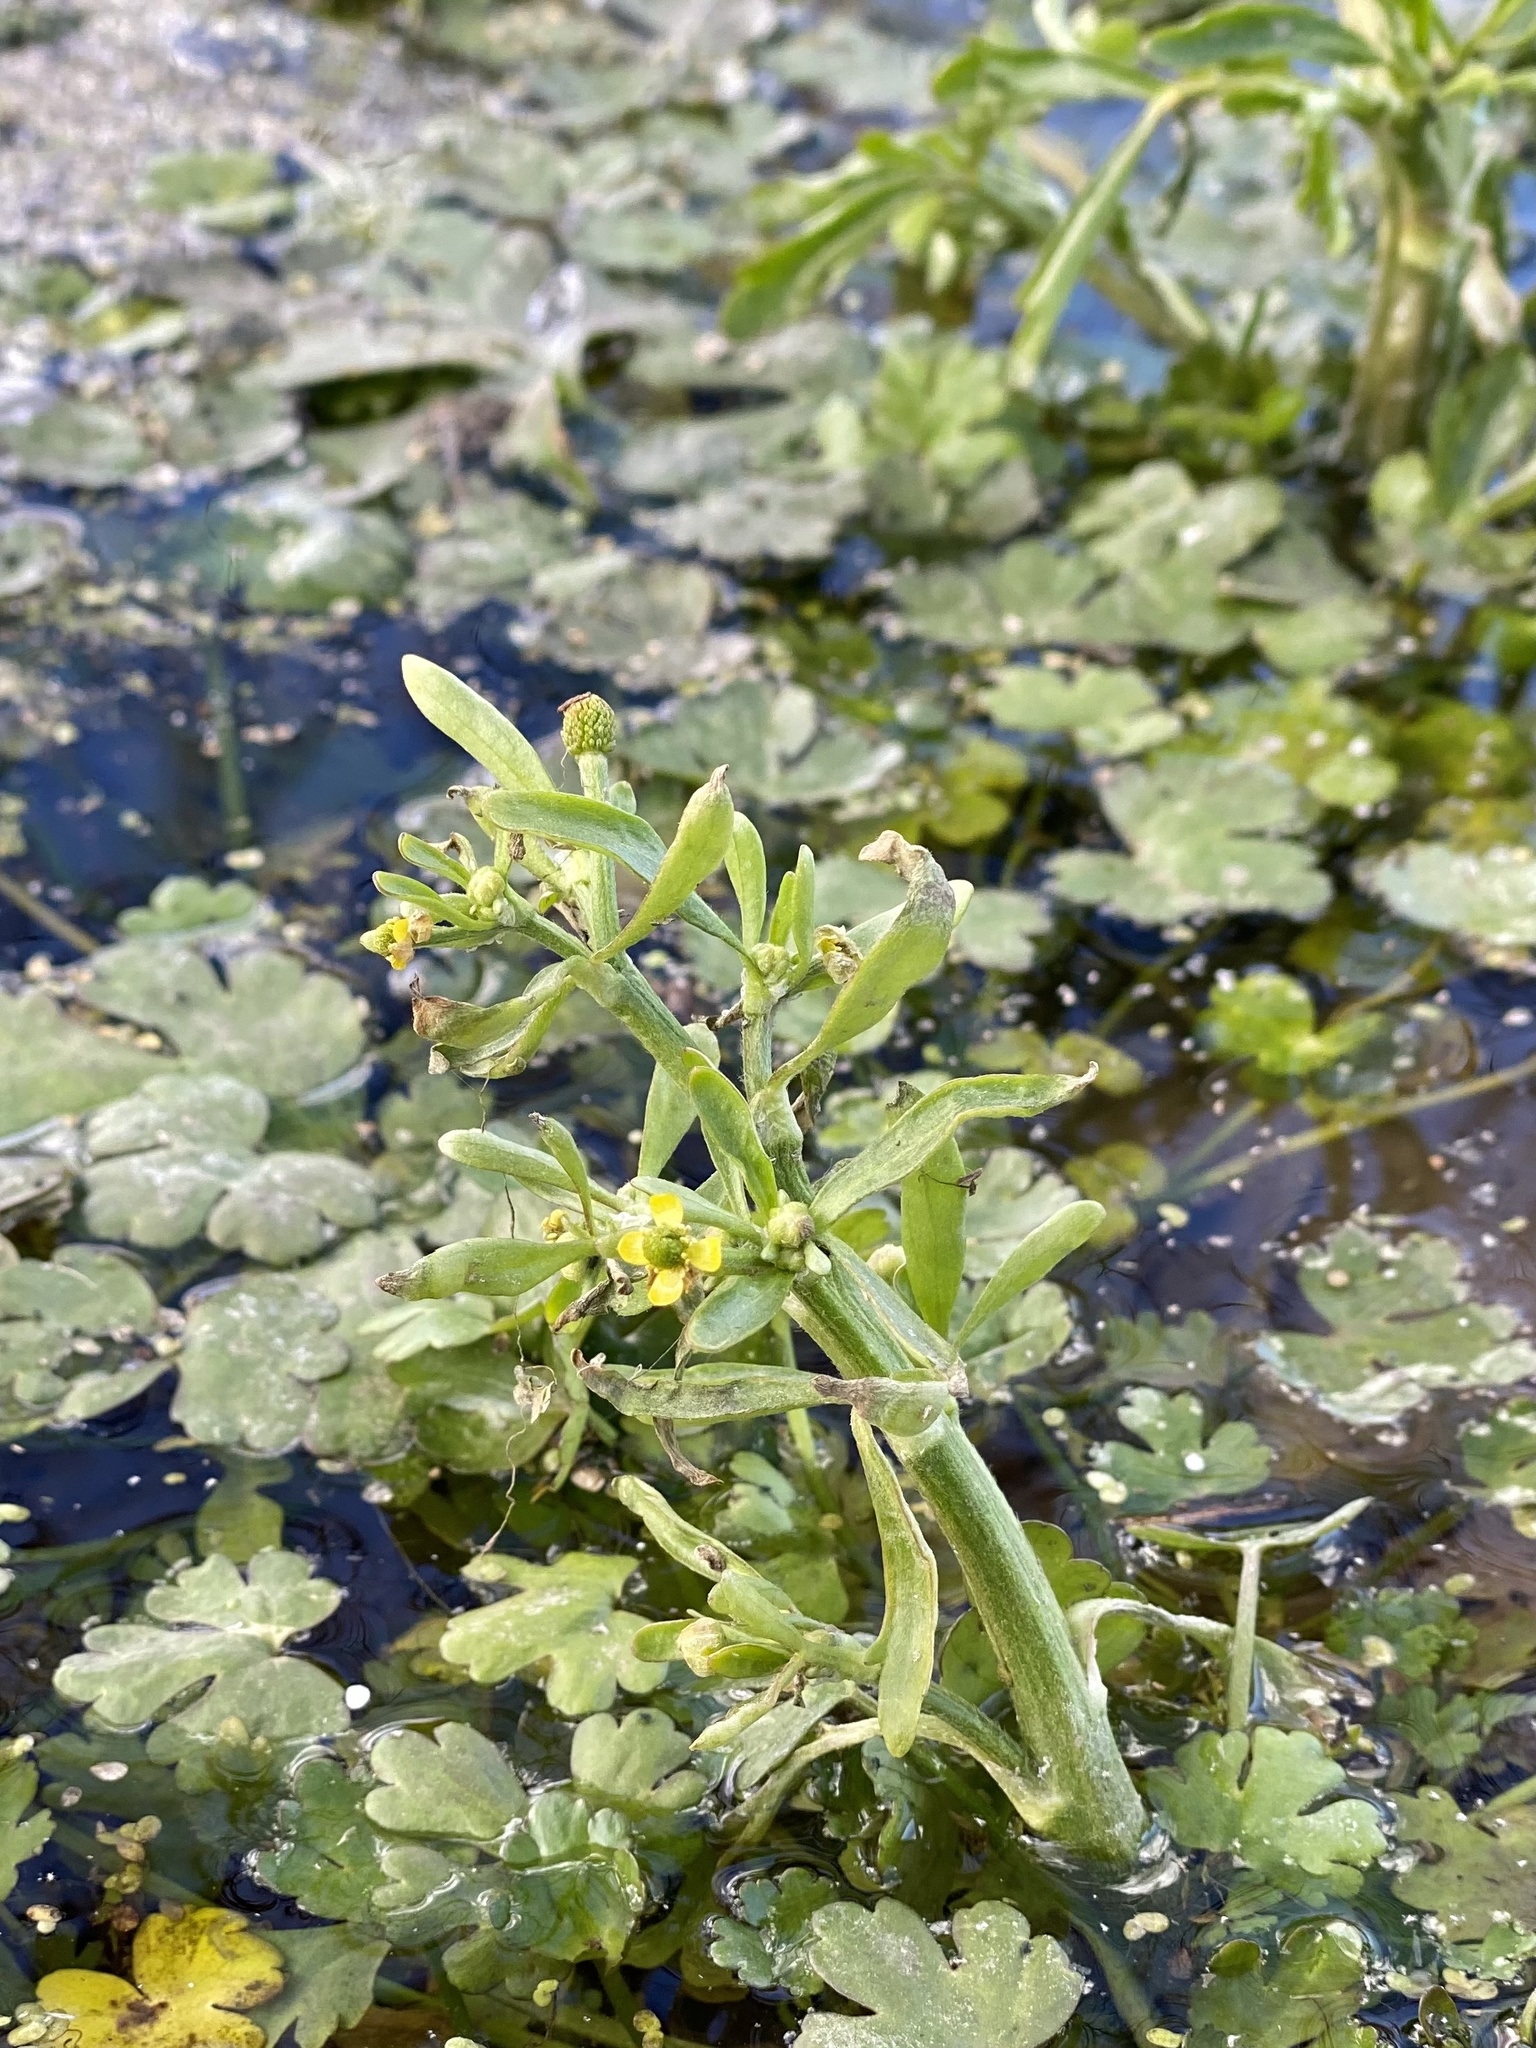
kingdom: Plantae
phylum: Tracheophyta
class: Magnoliopsida
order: Ranunculales
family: Ranunculaceae
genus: Ranunculus
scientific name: Ranunculus sceleratus
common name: Celery-leaved buttercup
